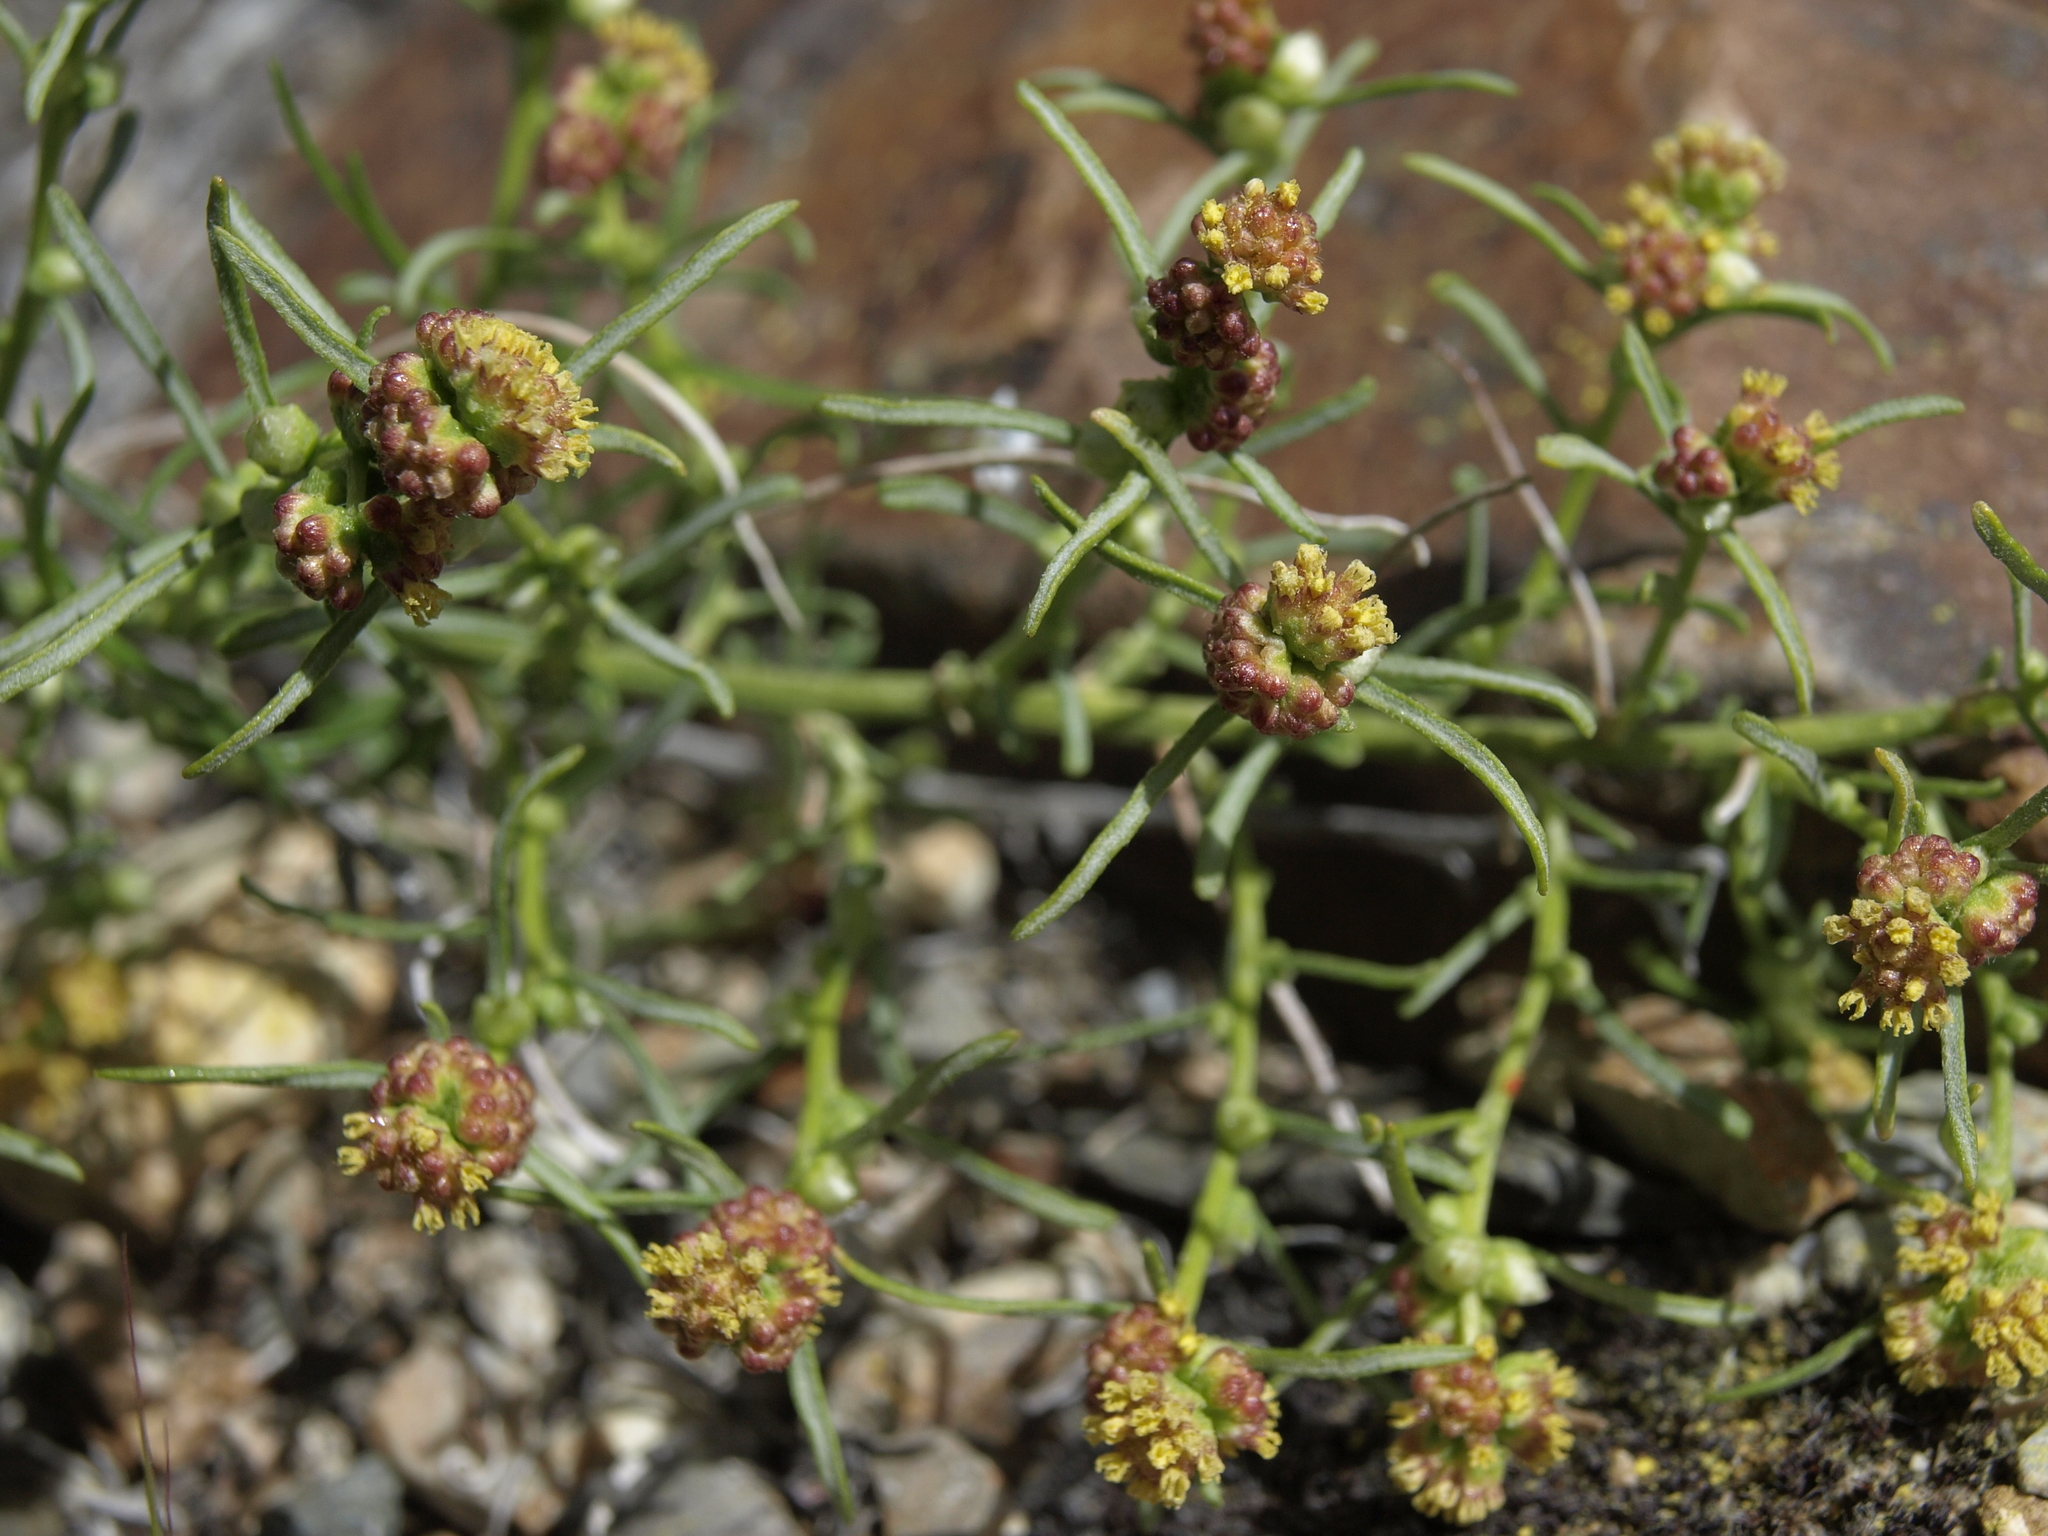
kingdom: Plantae
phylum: Tracheophyta
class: Magnoliopsida
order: Asterales
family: Asteraceae
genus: Ambrosia
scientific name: Ambrosia salsola
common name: Burrobrush
